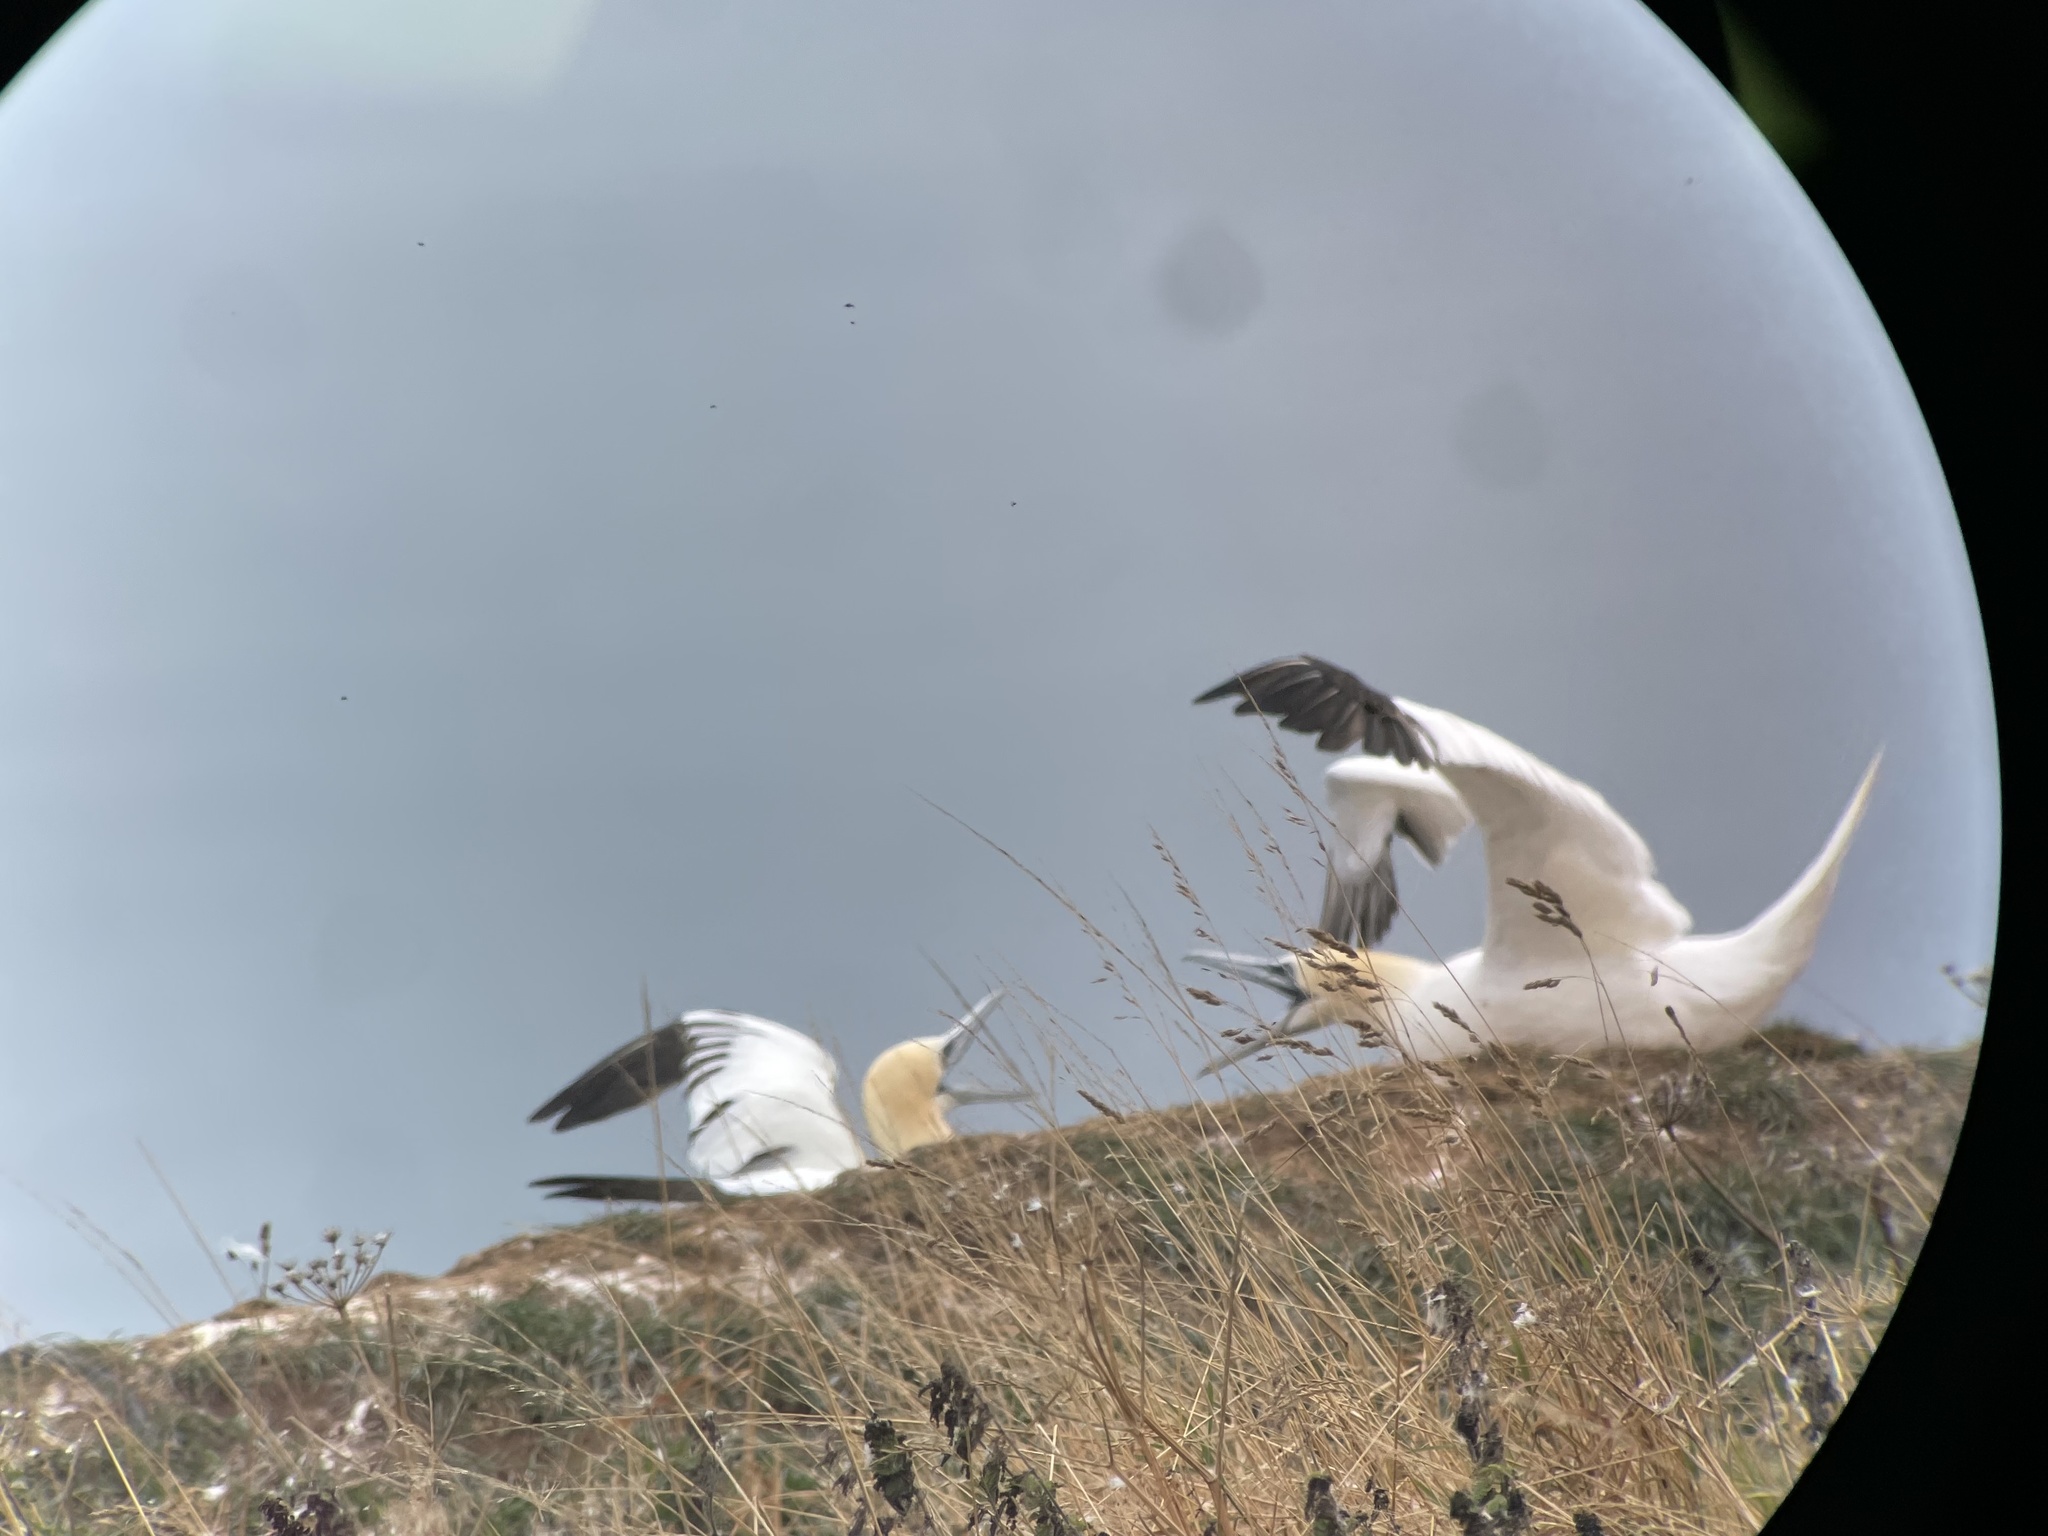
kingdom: Animalia
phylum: Chordata
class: Aves
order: Suliformes
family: Sulidae
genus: Morus
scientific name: Morus bassanus
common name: Northern gannet
